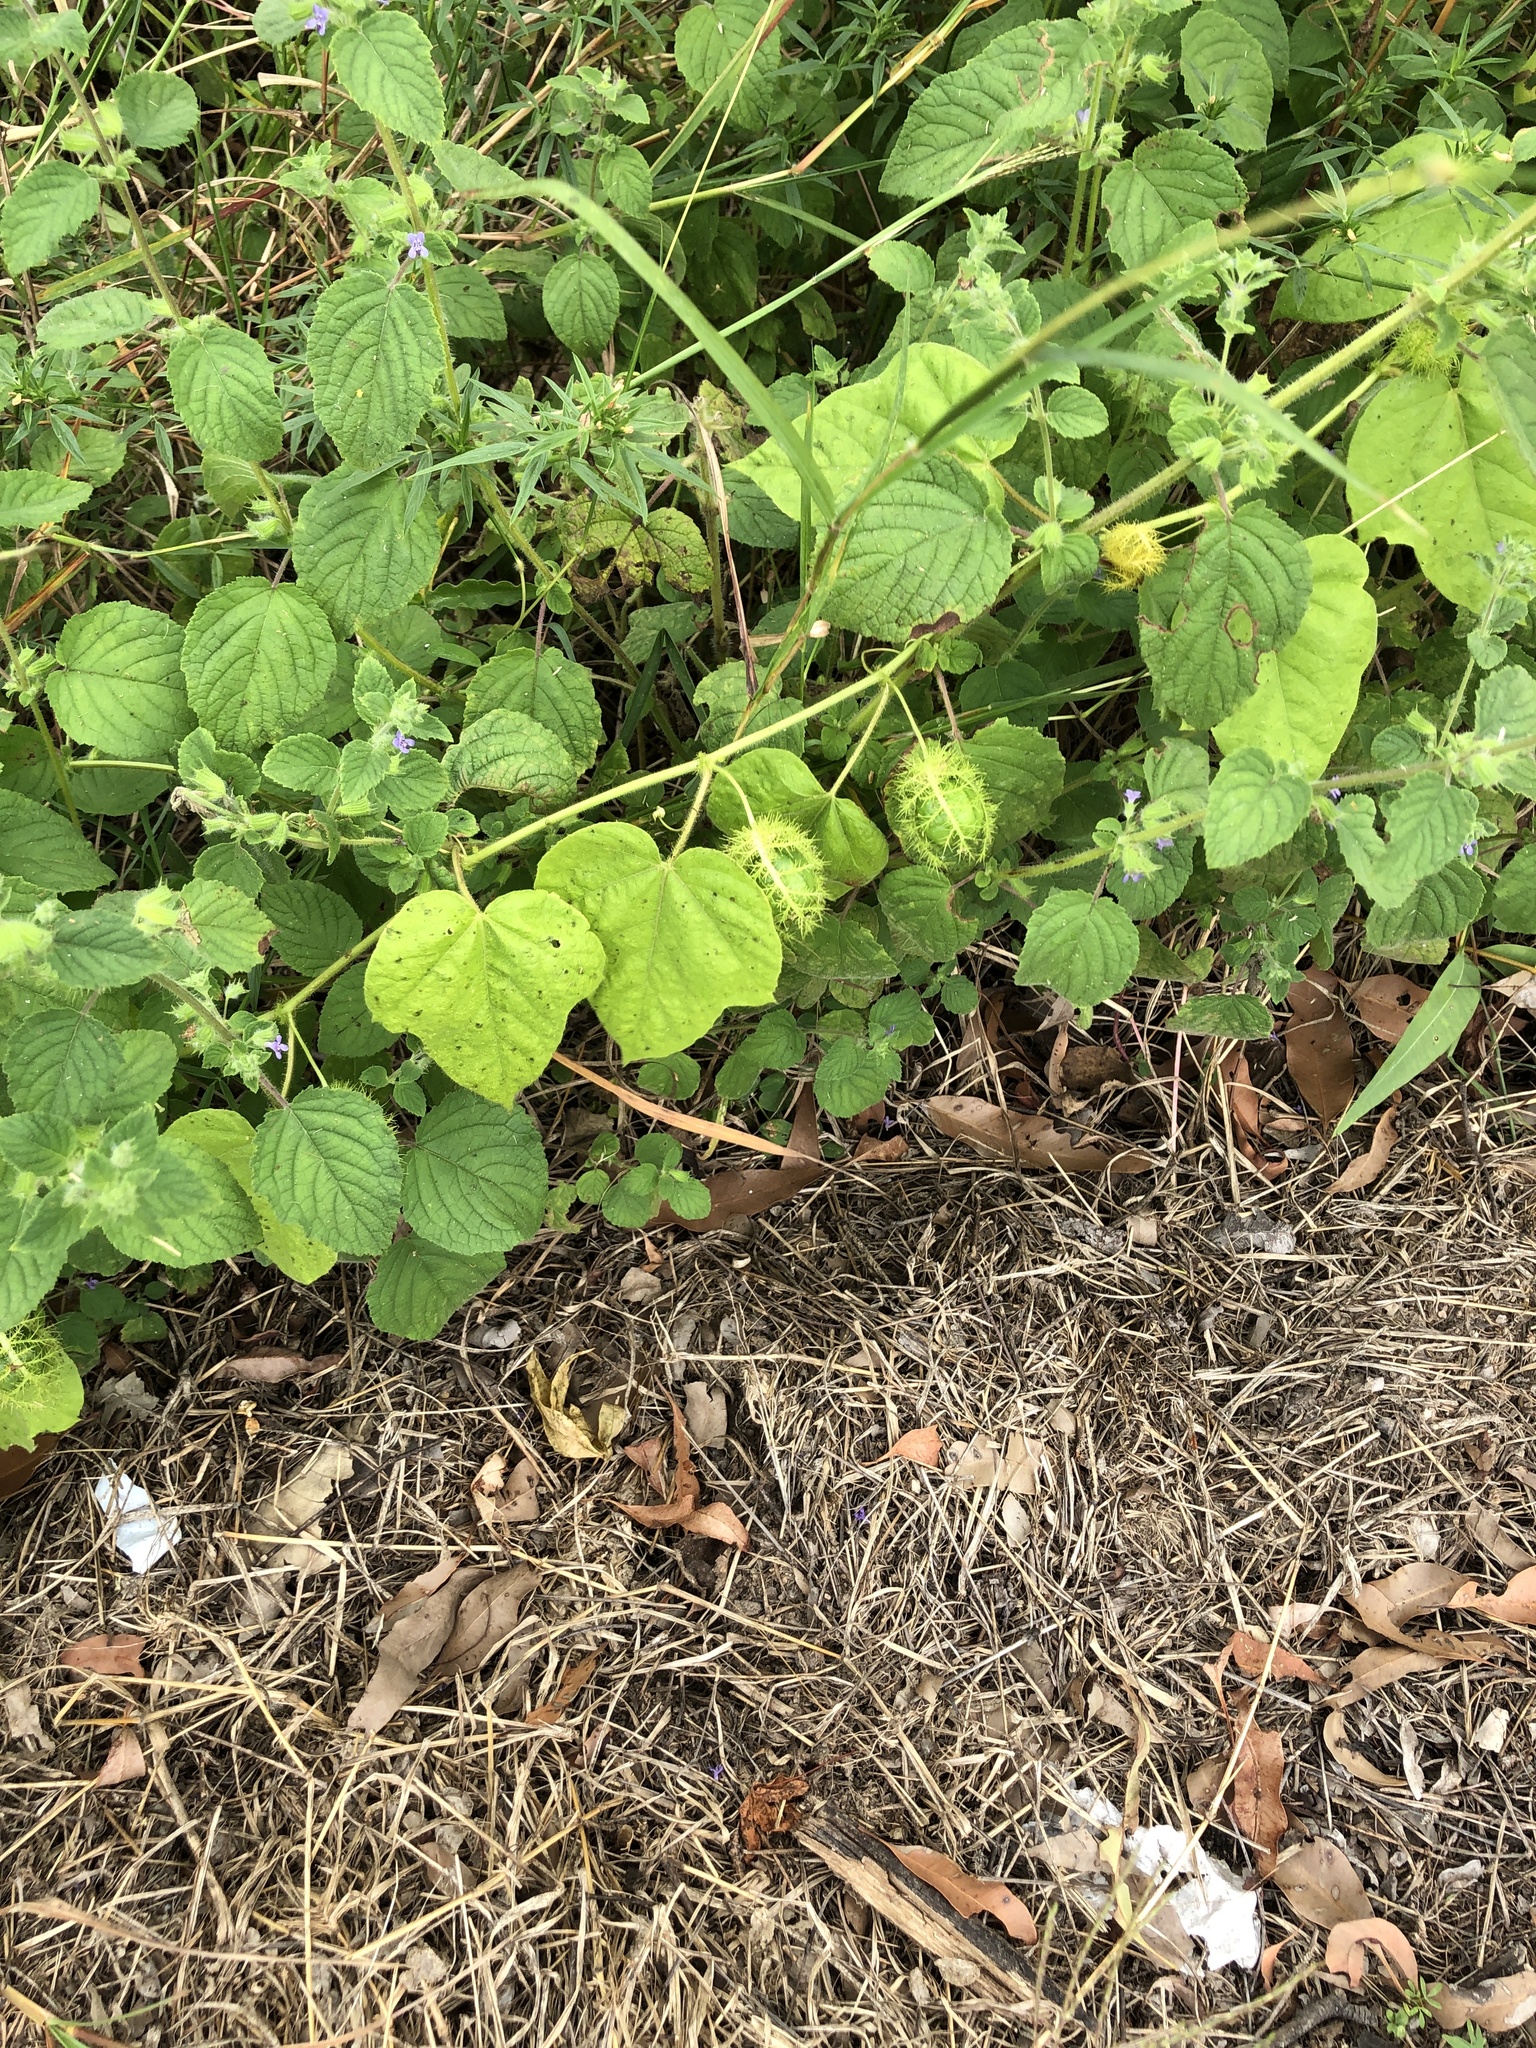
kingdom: Plantae
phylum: Tracheophyta
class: Magnoliopsida
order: Malpighiales
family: Passifloraceae
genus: Passiflora
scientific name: Passiflora foetida
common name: Fetid passionflower
